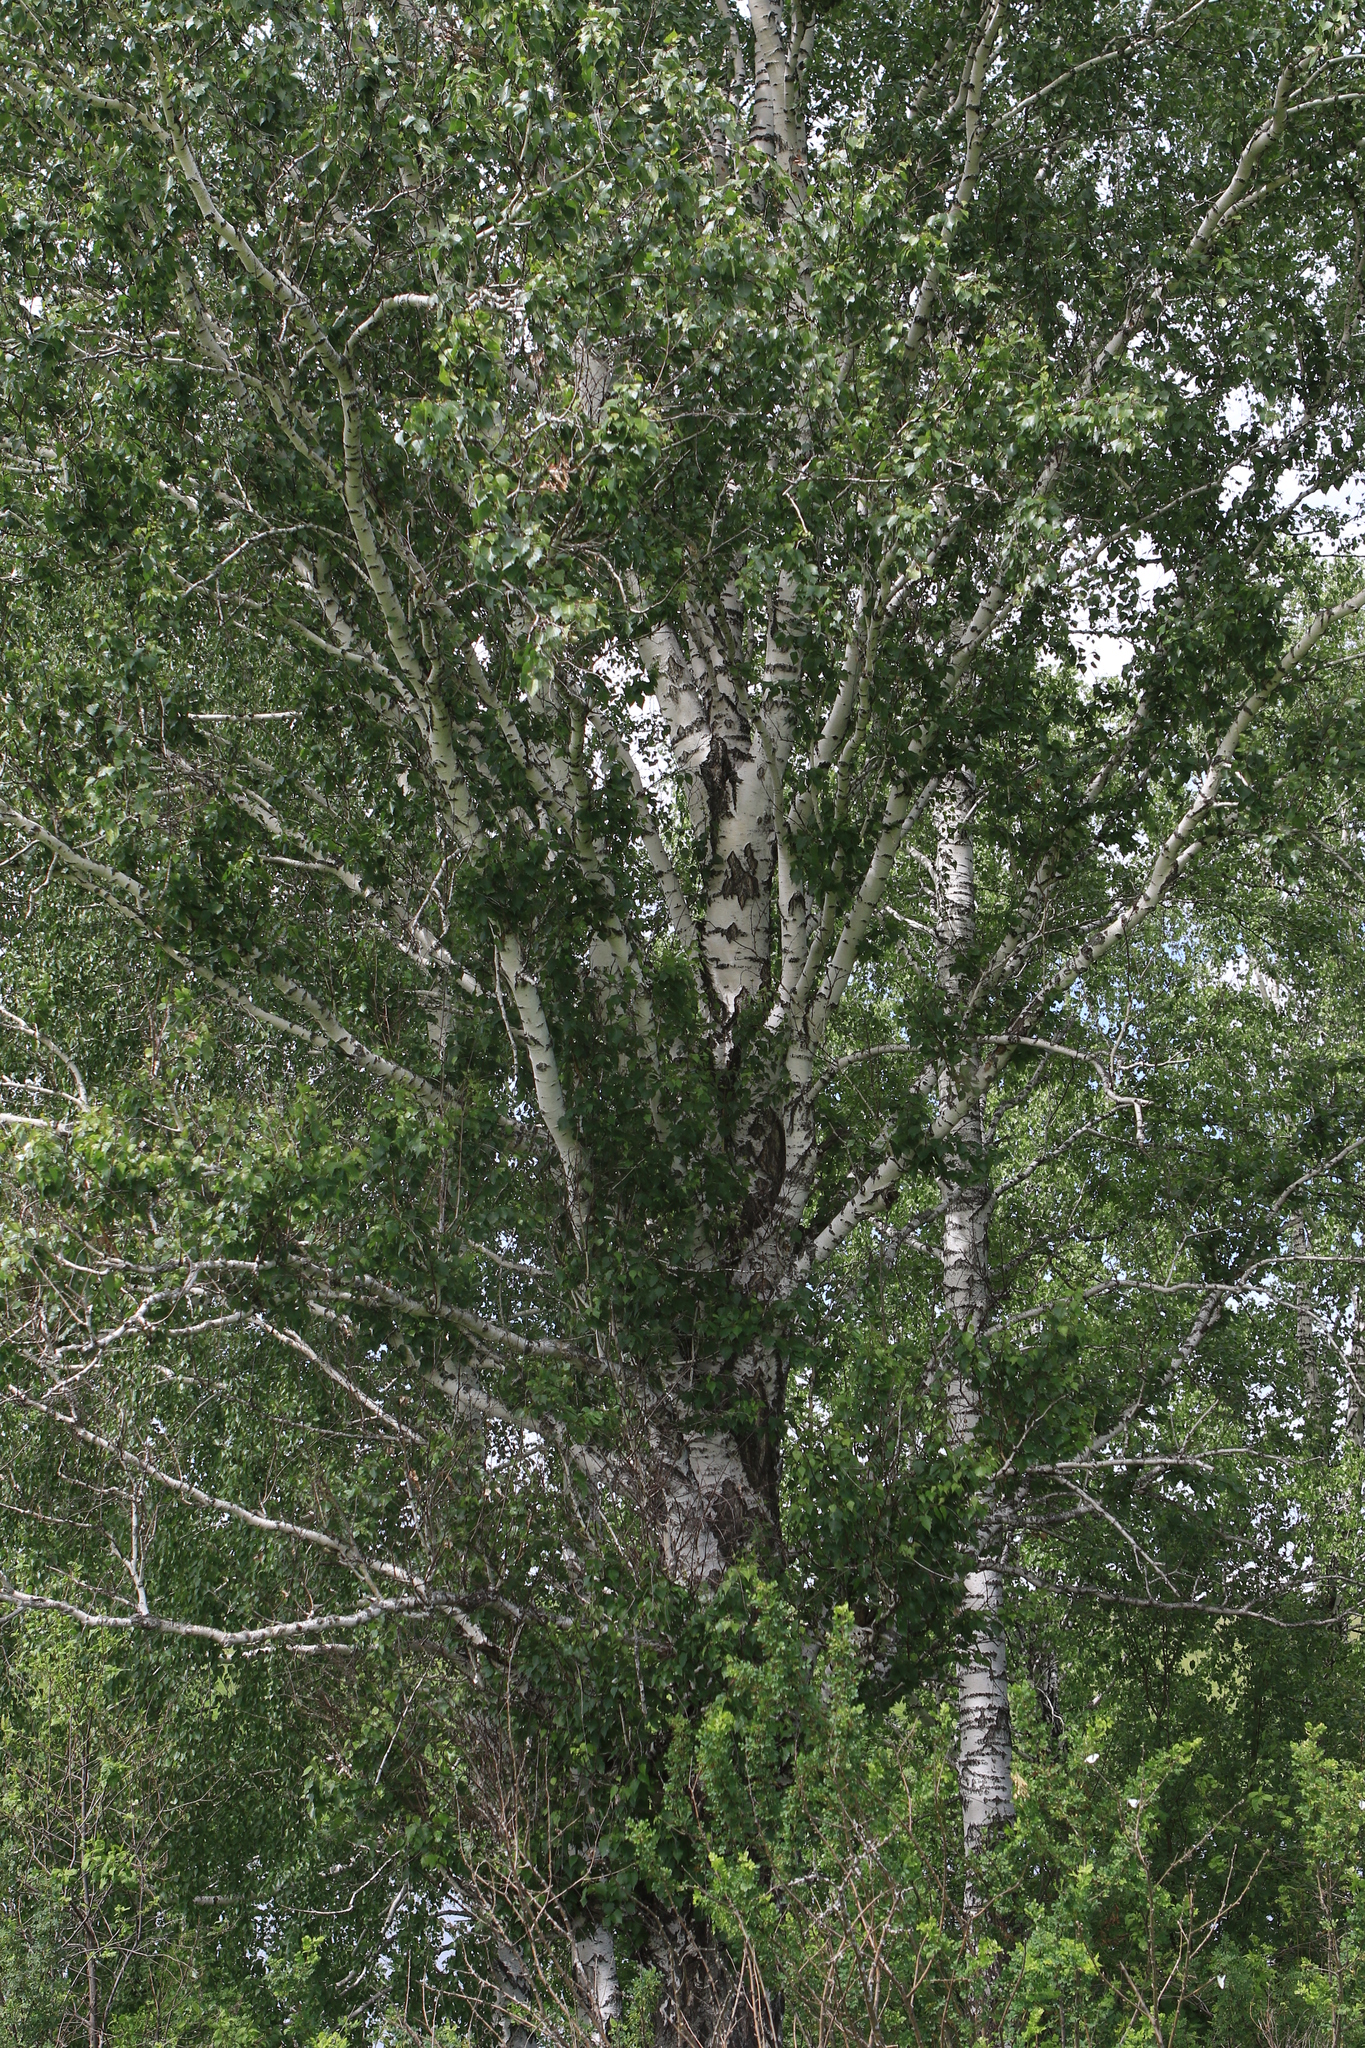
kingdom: Plantae
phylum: Tracheophyta
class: Magnoliopsida
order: Fagales
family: Betulaceae
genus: Betula
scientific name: Betula pendula
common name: Silver birch
